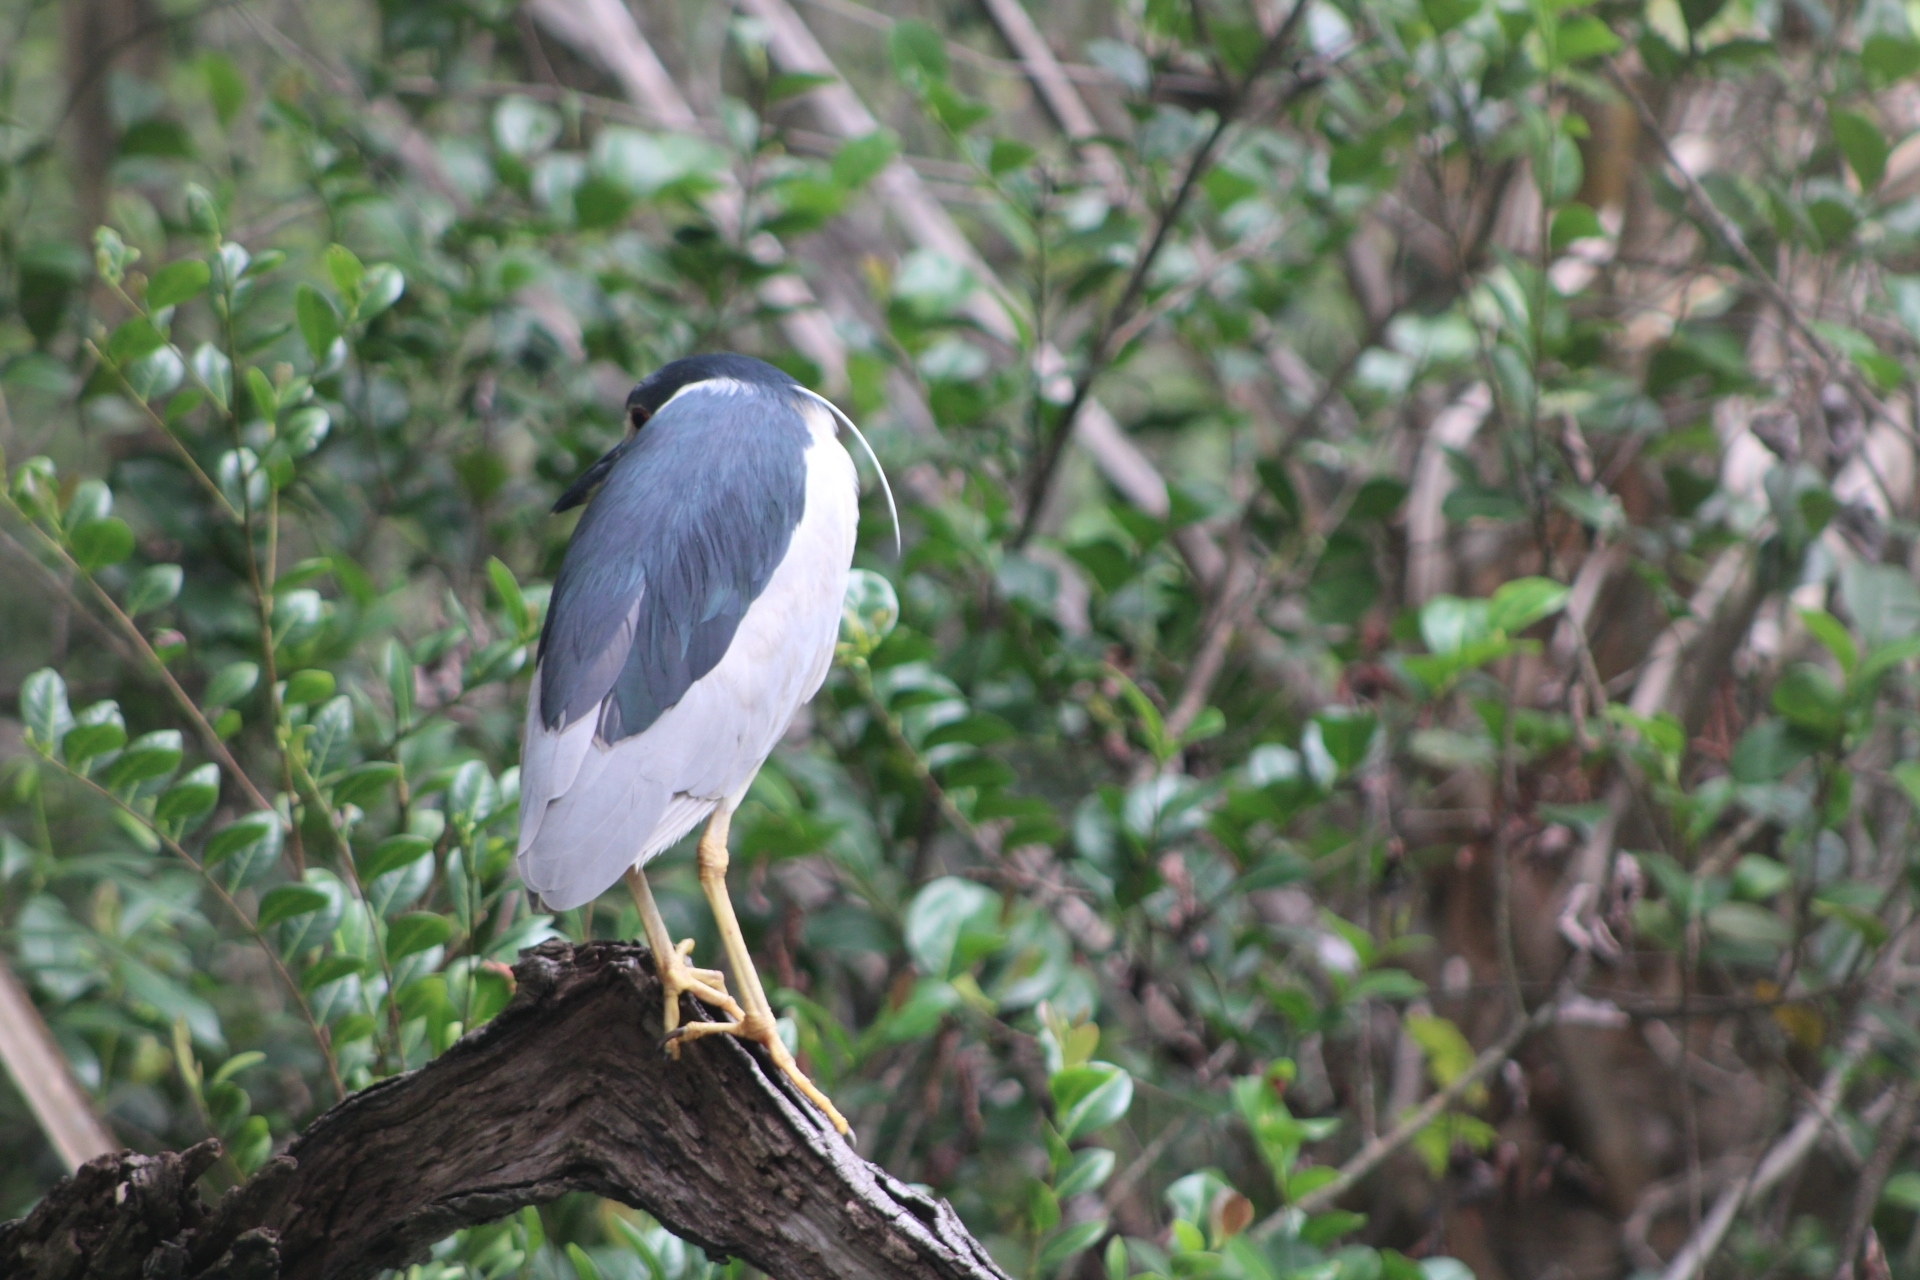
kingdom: Animalia
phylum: Chordata
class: Aves
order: Pelecaniformes
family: Ardeidae
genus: Nycticorax
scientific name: Nycticorax nycticorax
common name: Black-crowned night heron
